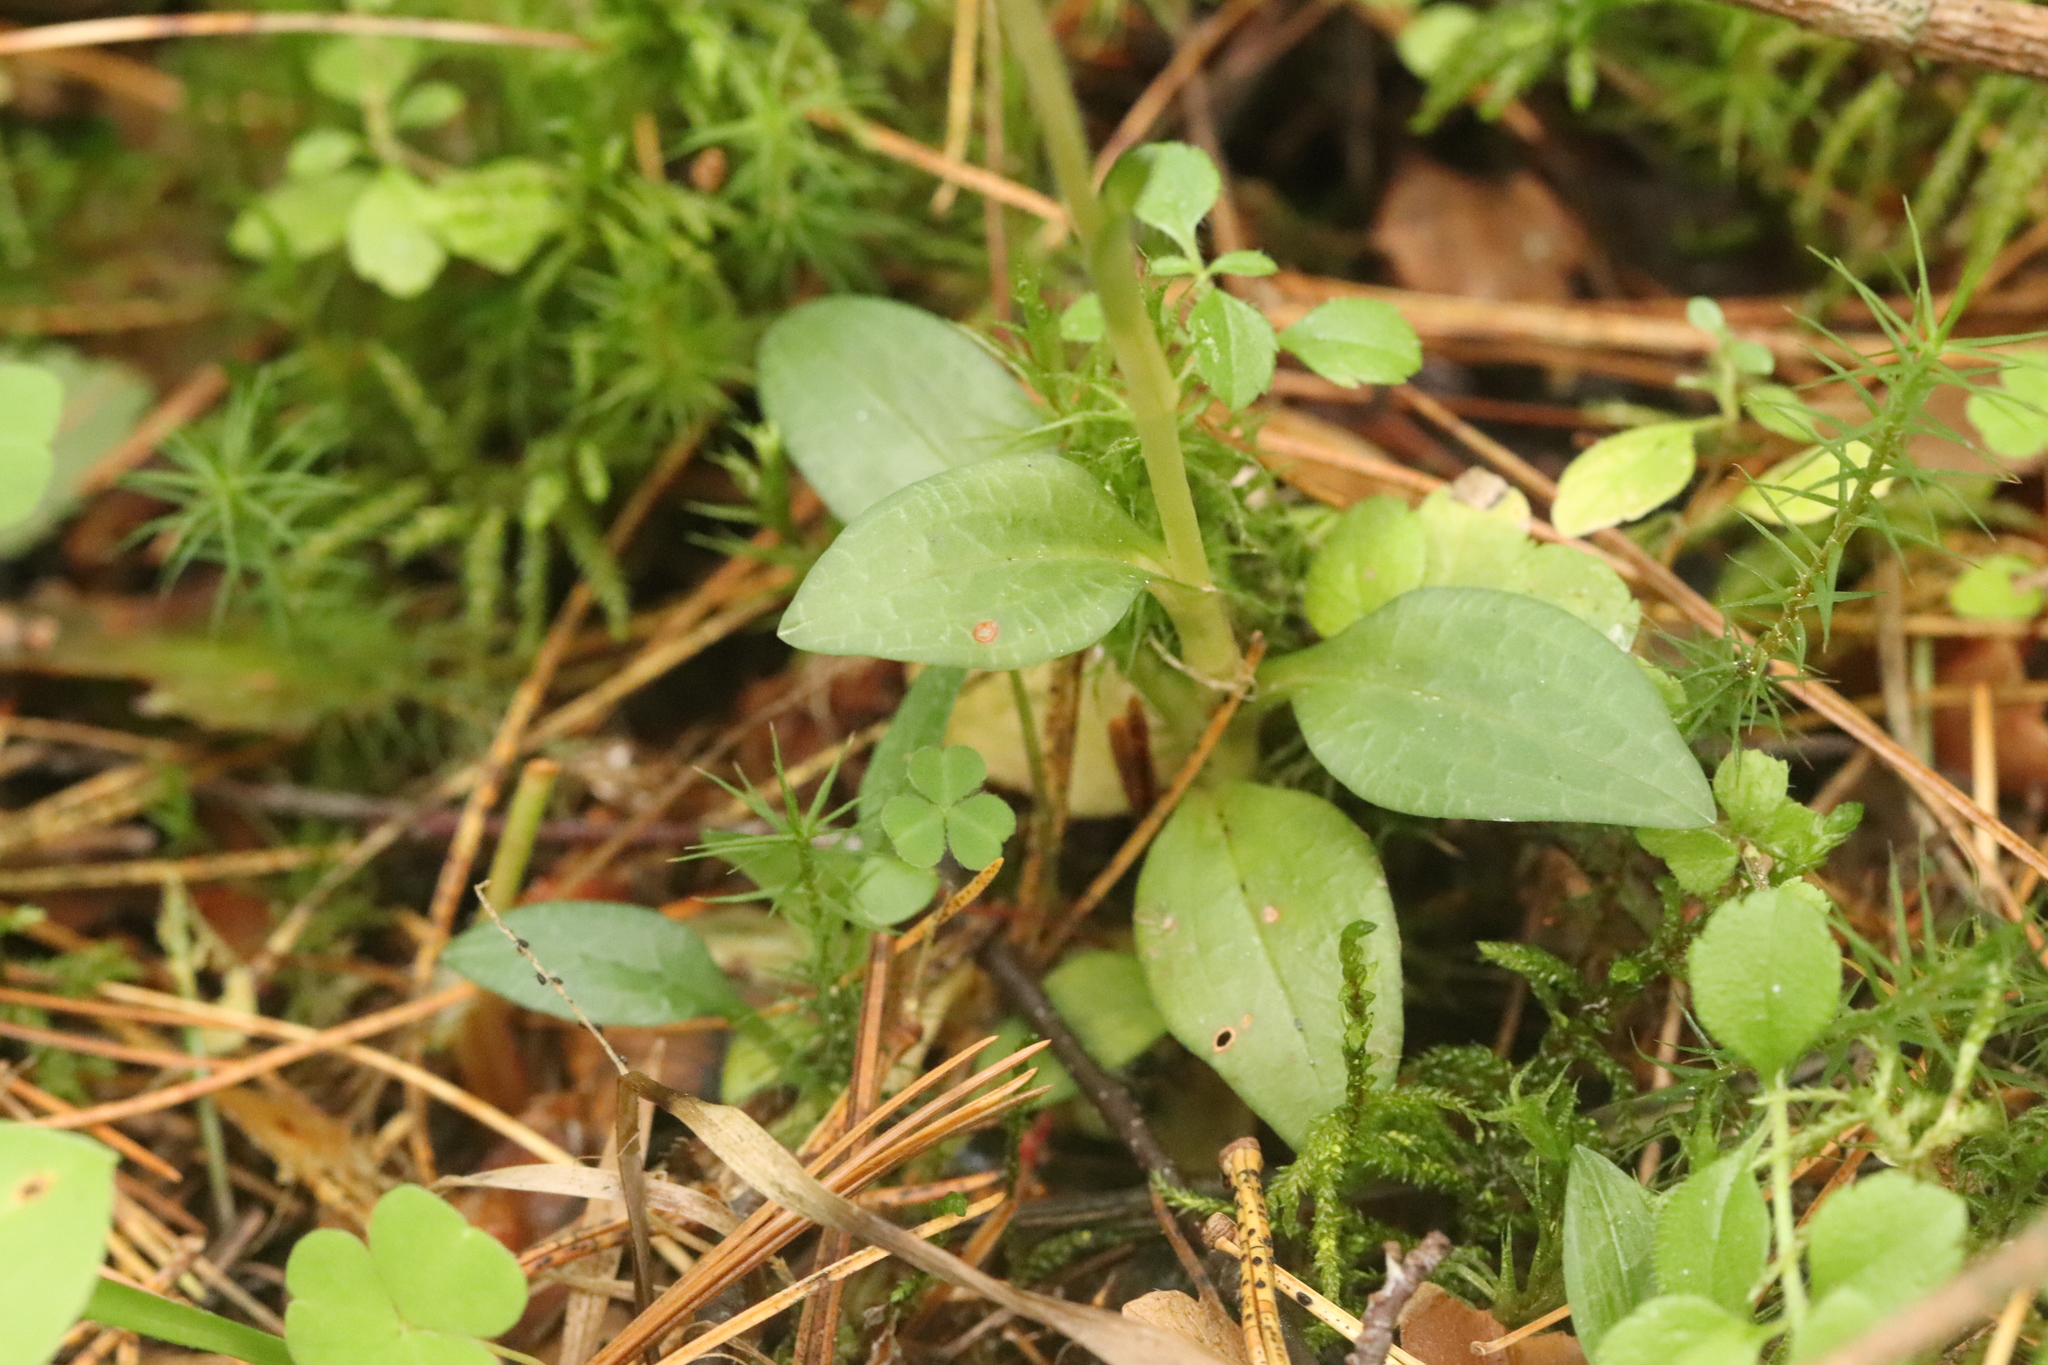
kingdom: Plantae
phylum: Tracheophyta
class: Liliopsida
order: Asparagales
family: Orchidaceae
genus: Goodyera
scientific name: Goodyera repens
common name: Creeping lady's-tresses
